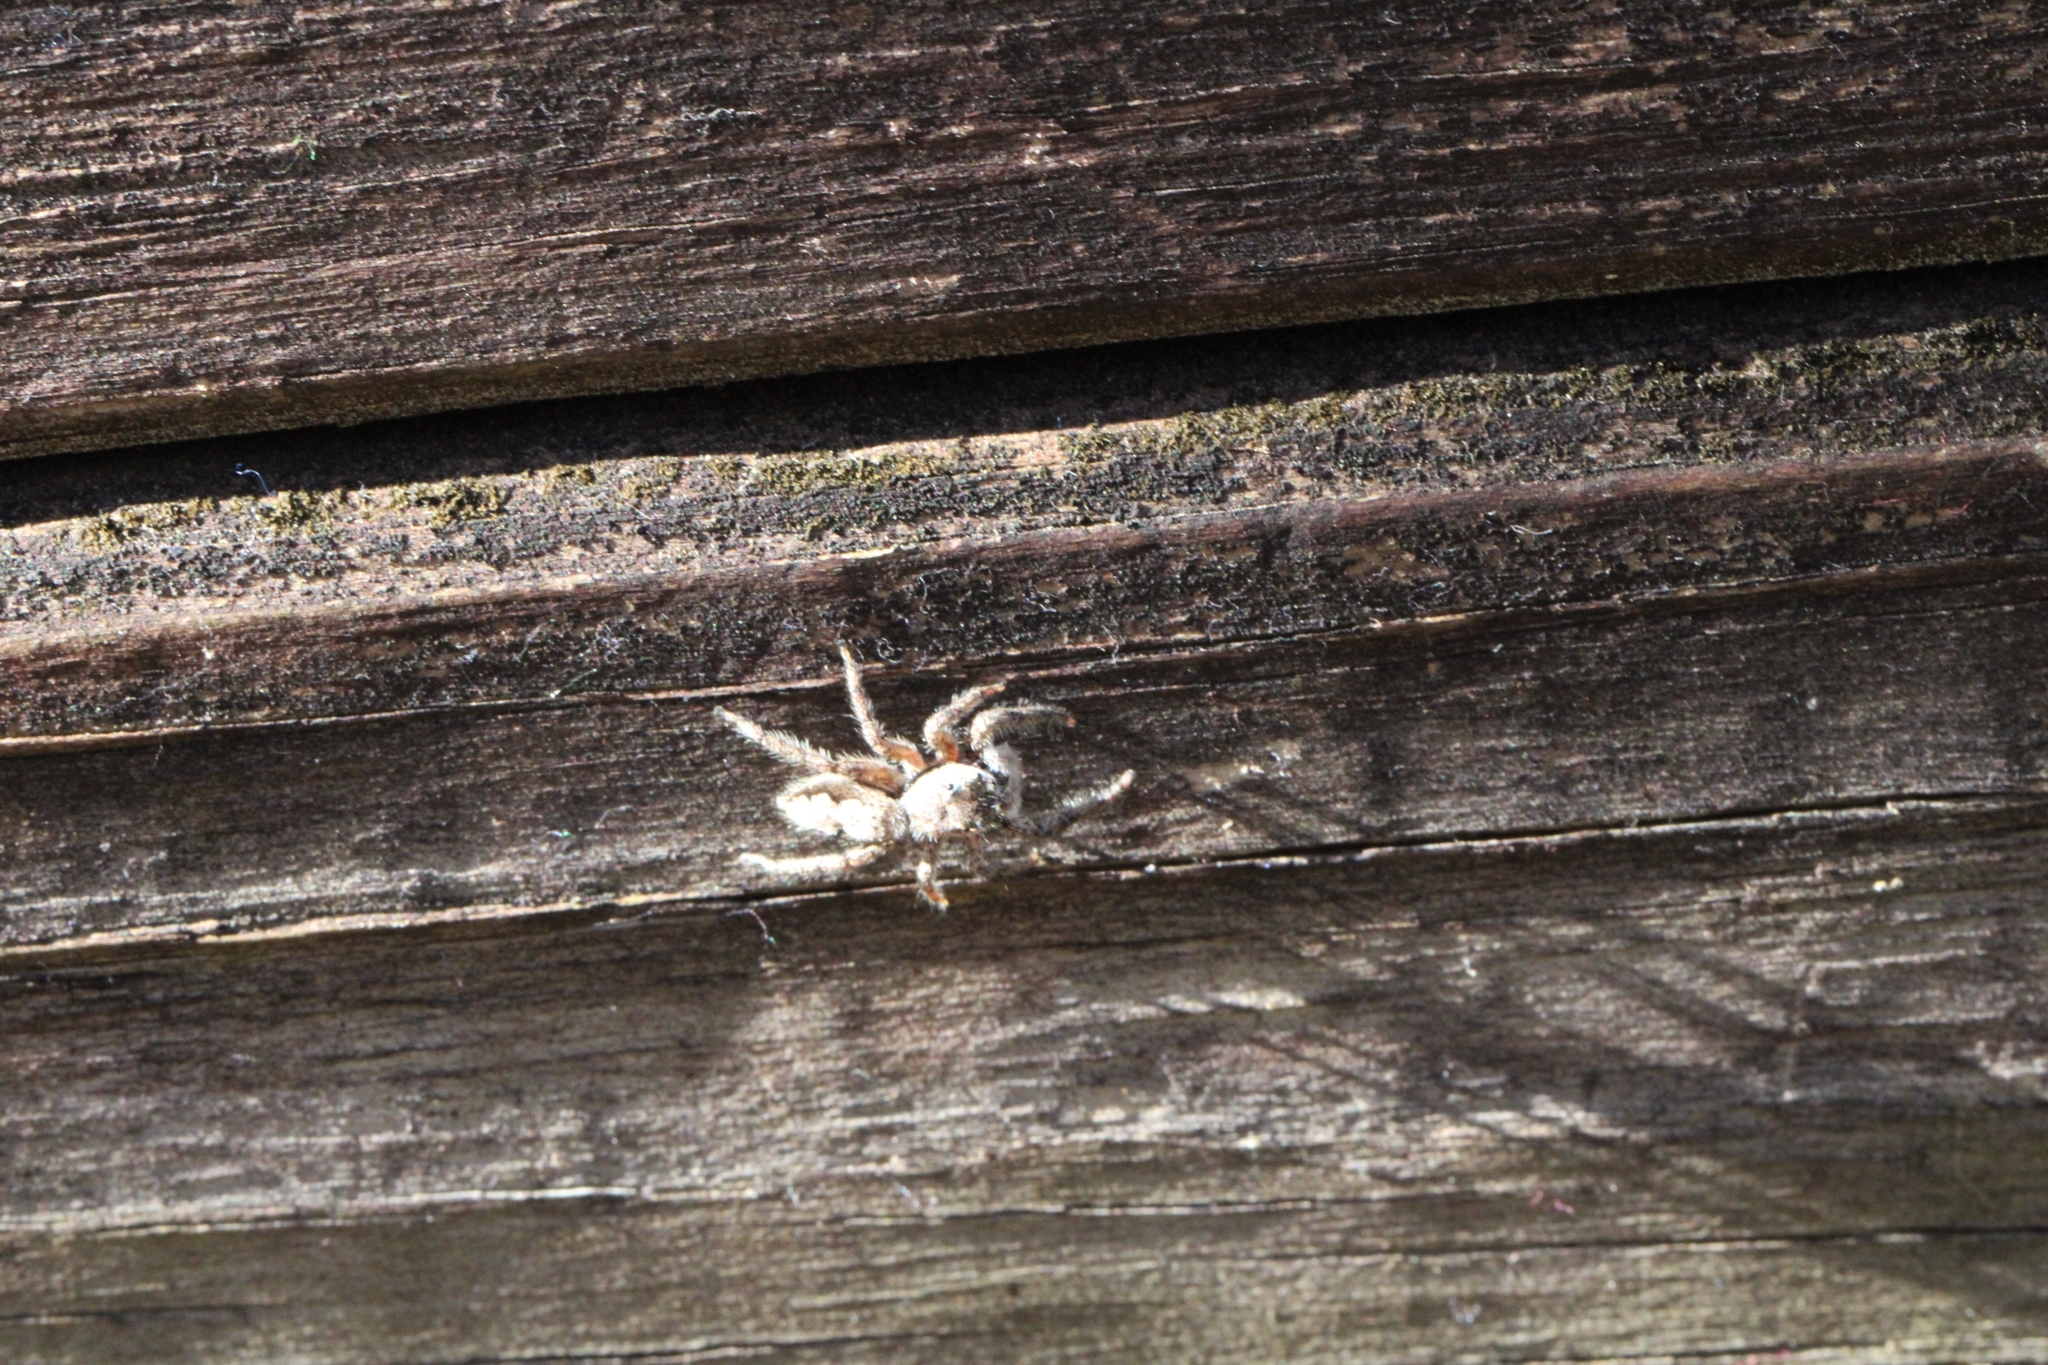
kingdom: Animalia
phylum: Arthropoda
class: Arachnida
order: Araneae
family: Salticidae
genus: Platycryptus
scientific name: Platycryptus undatus
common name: Tan jumping spider
